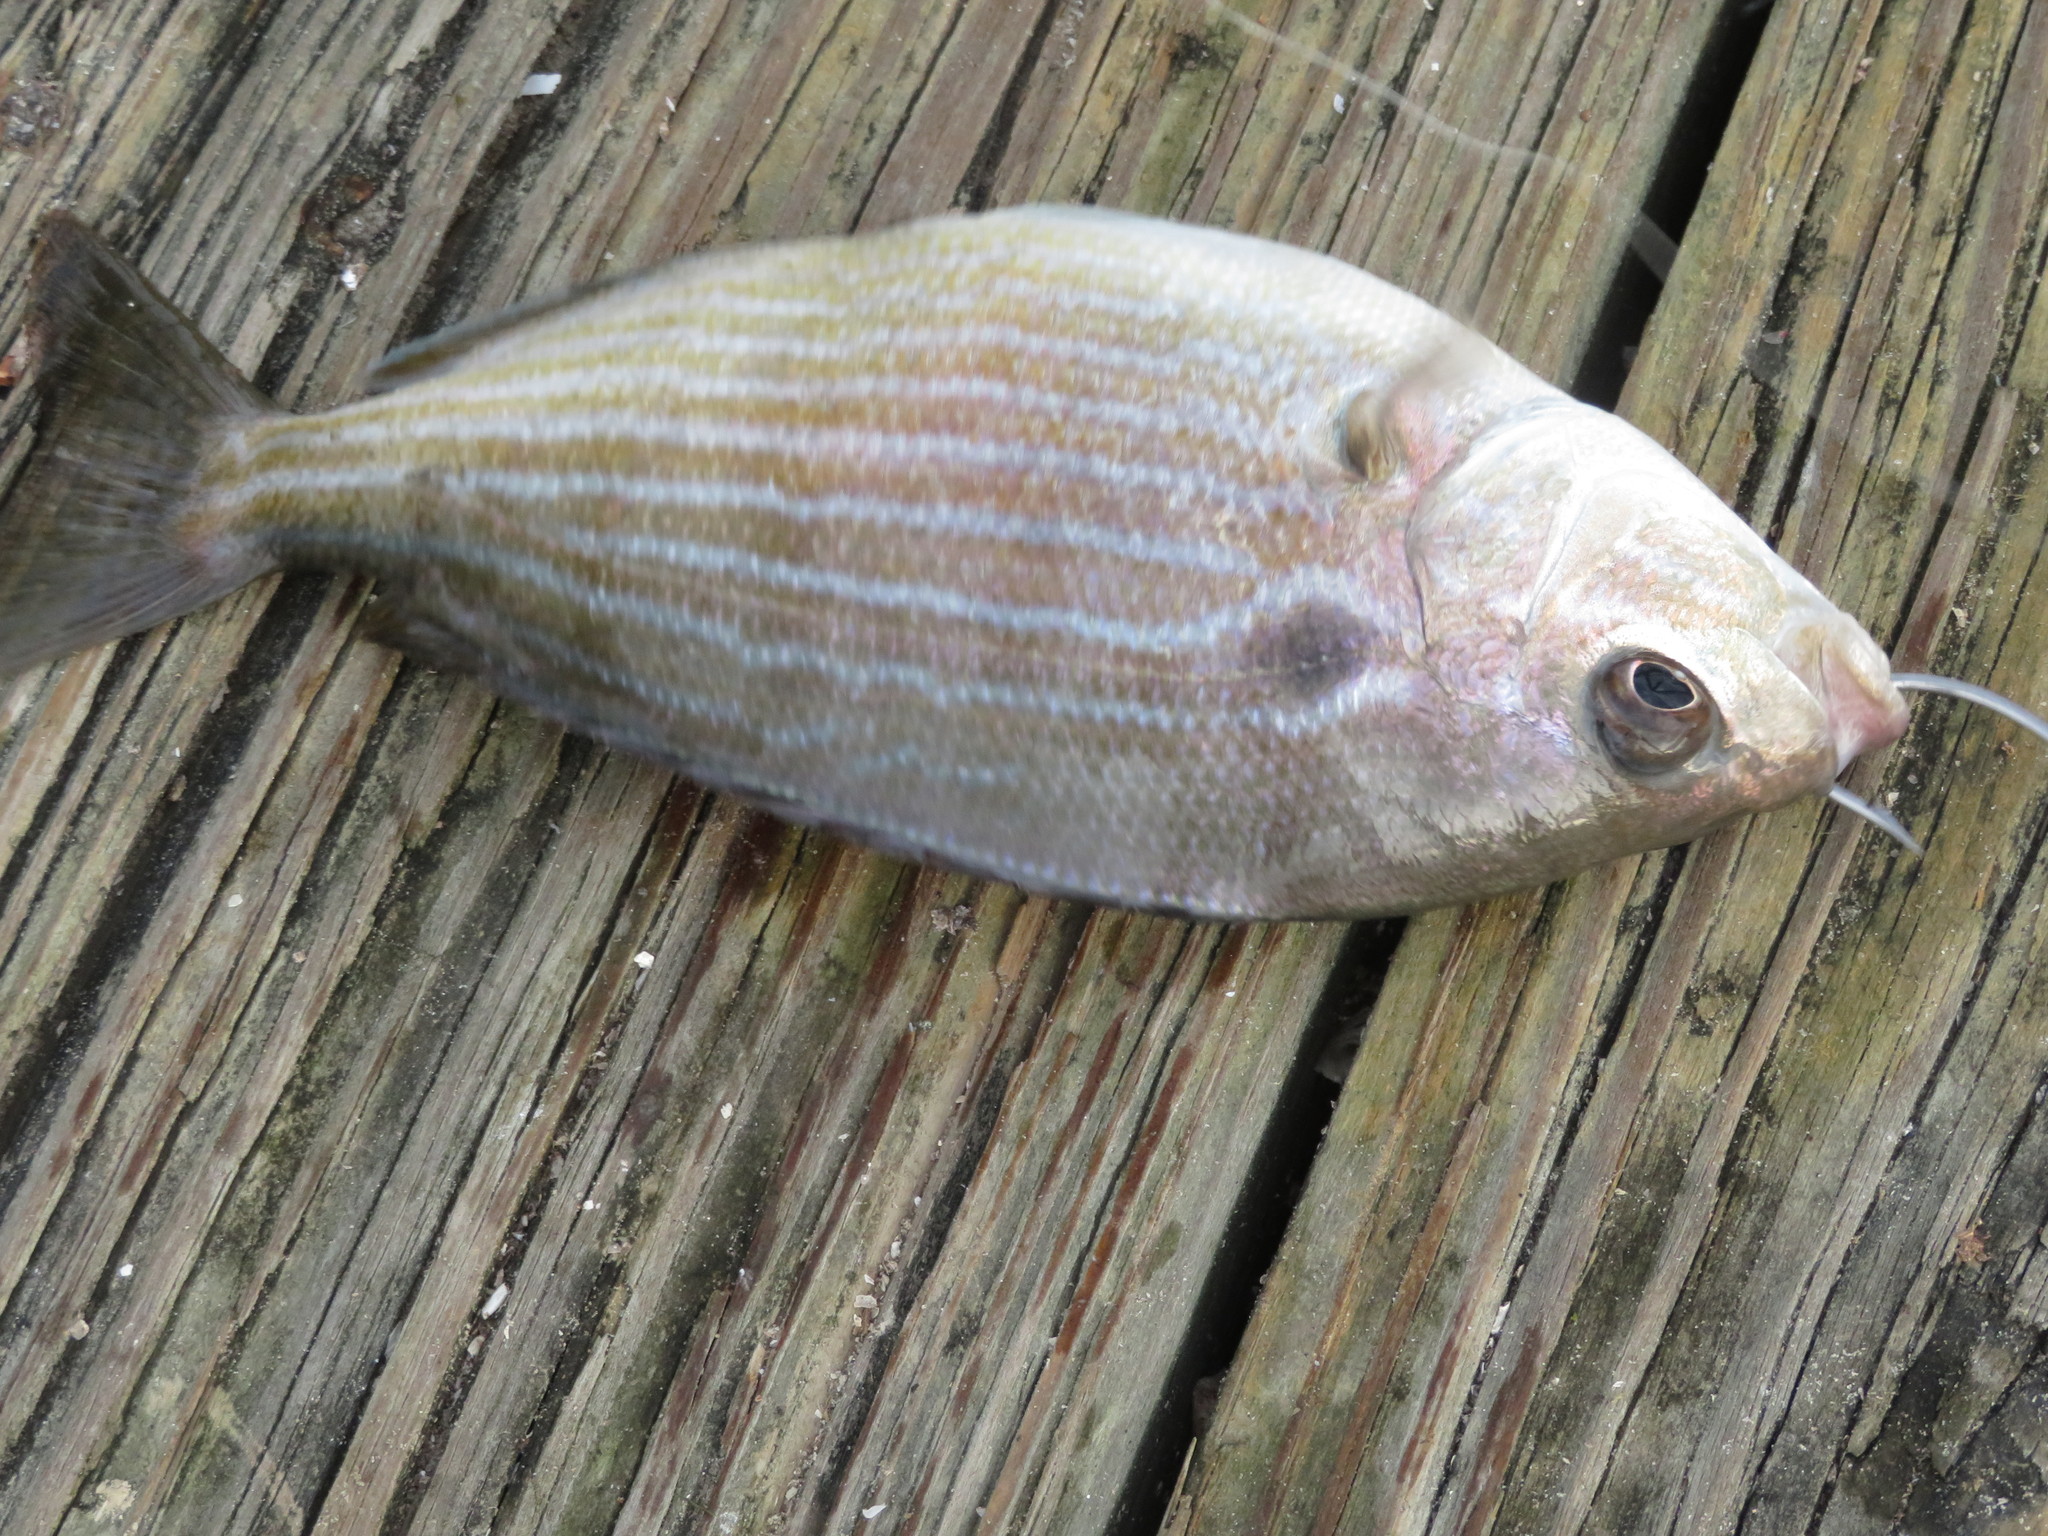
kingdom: Animalia
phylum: Chordata
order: Perciformes
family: Sparidae
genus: Lagodon
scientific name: Lagodon rhomboides
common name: Pinfish
